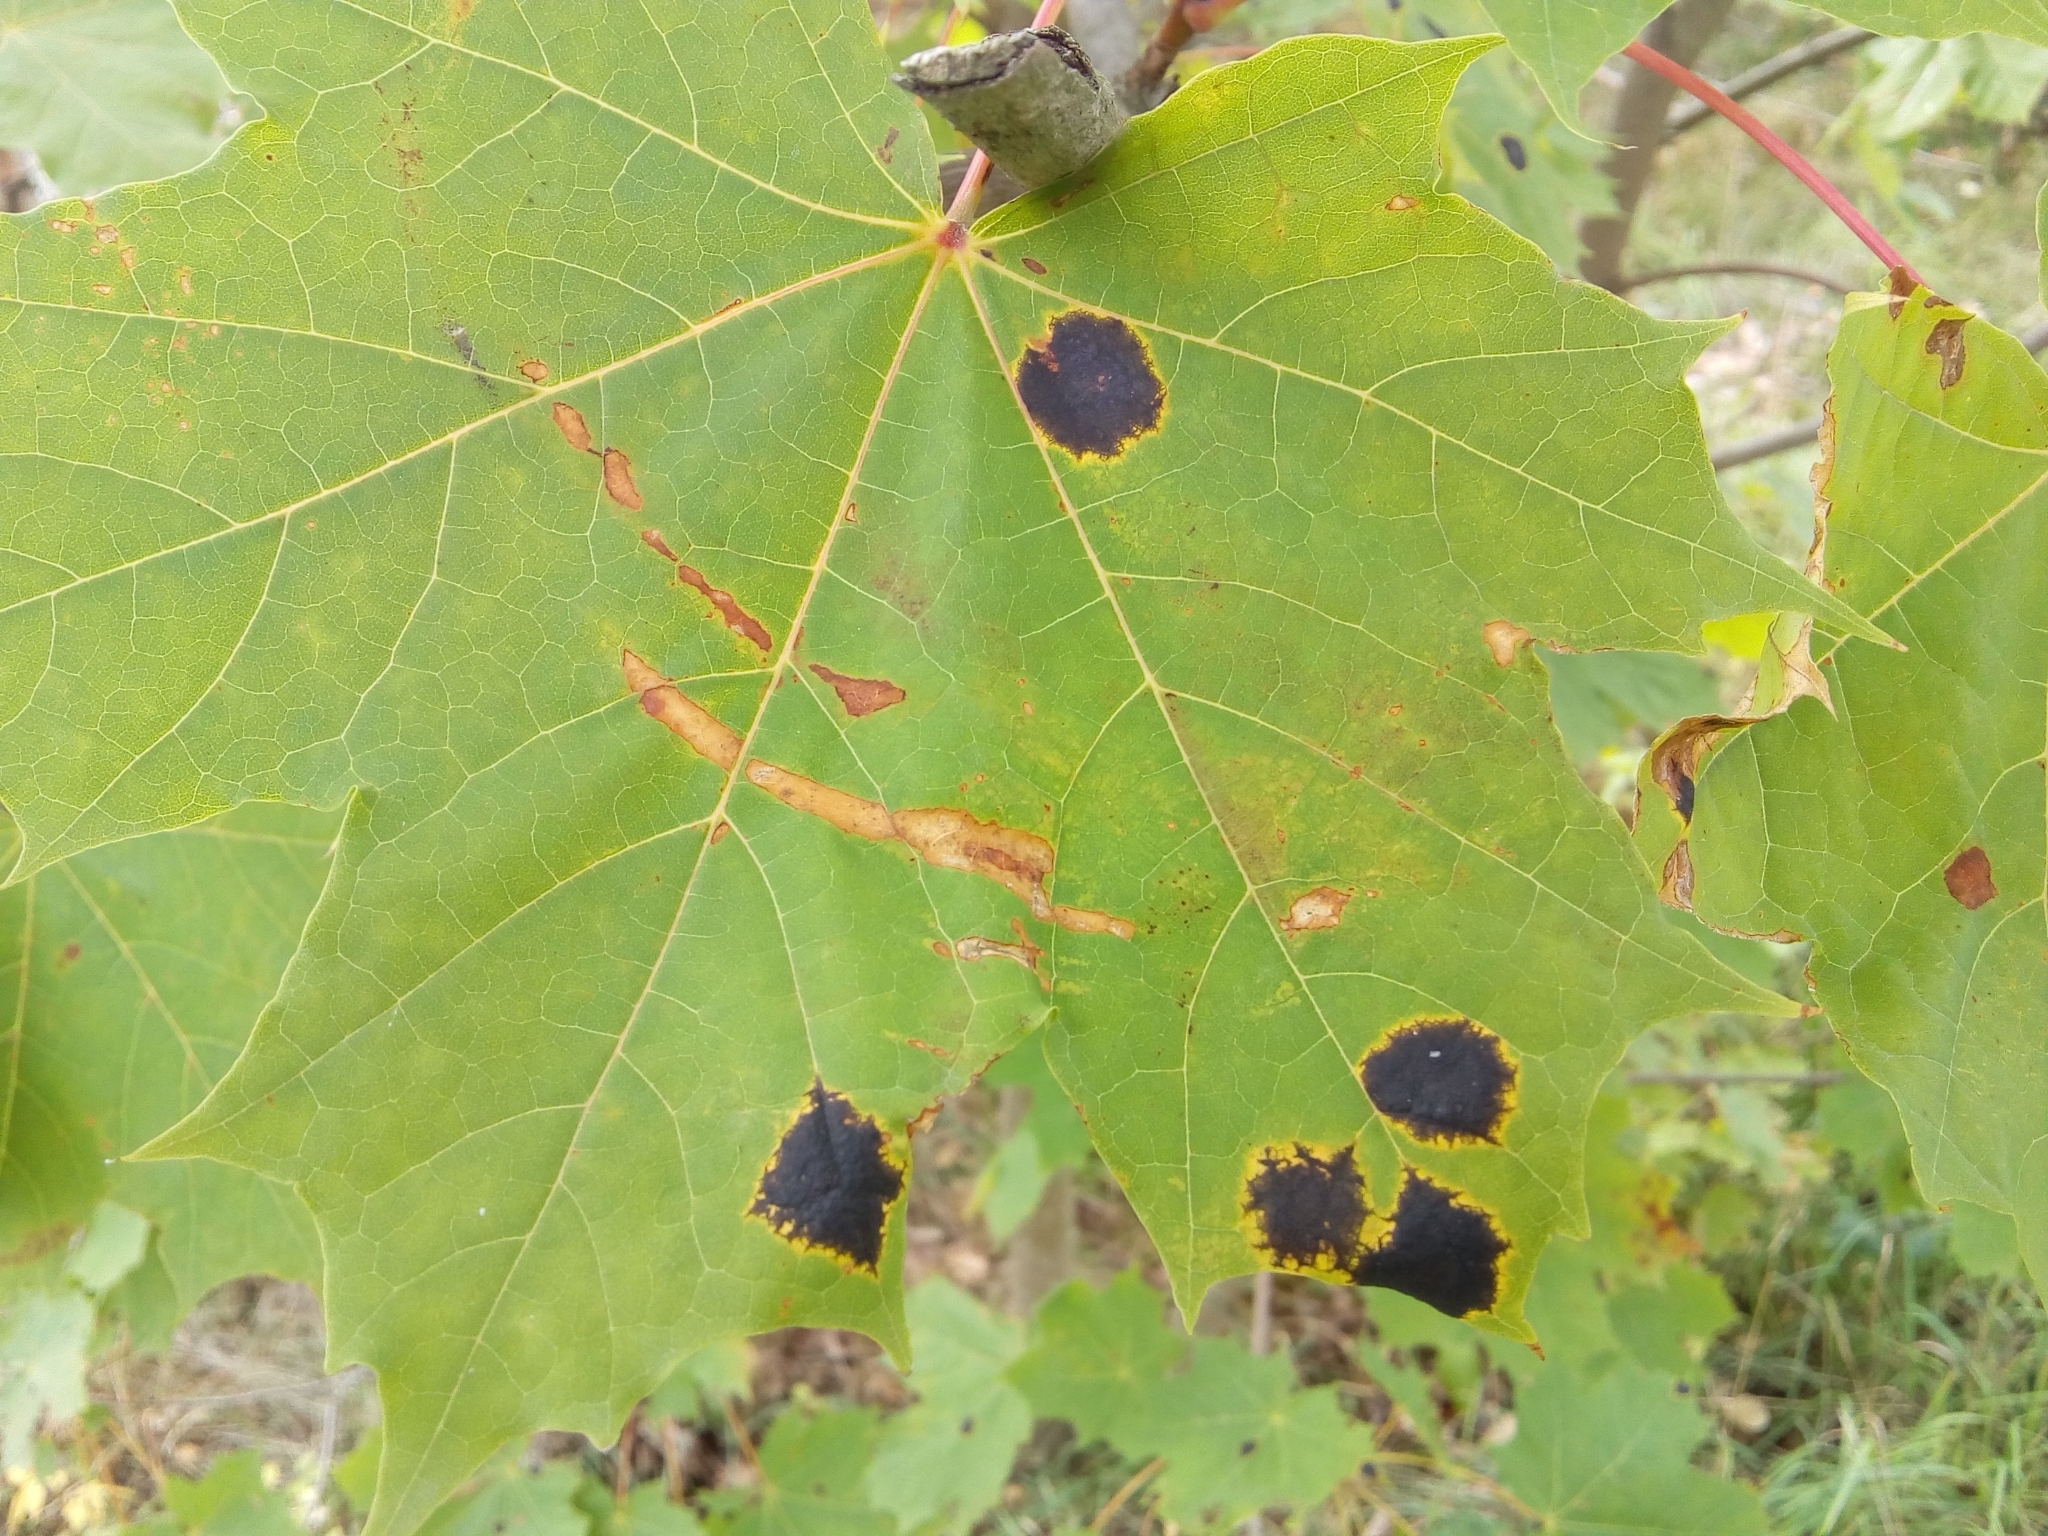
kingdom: Fungi
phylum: Ascomycota
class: Leotiomycetes
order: Rhytismatales
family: Rhytismataceae
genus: Rhytisma
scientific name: Rhytisma acerinum
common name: European tar spot
